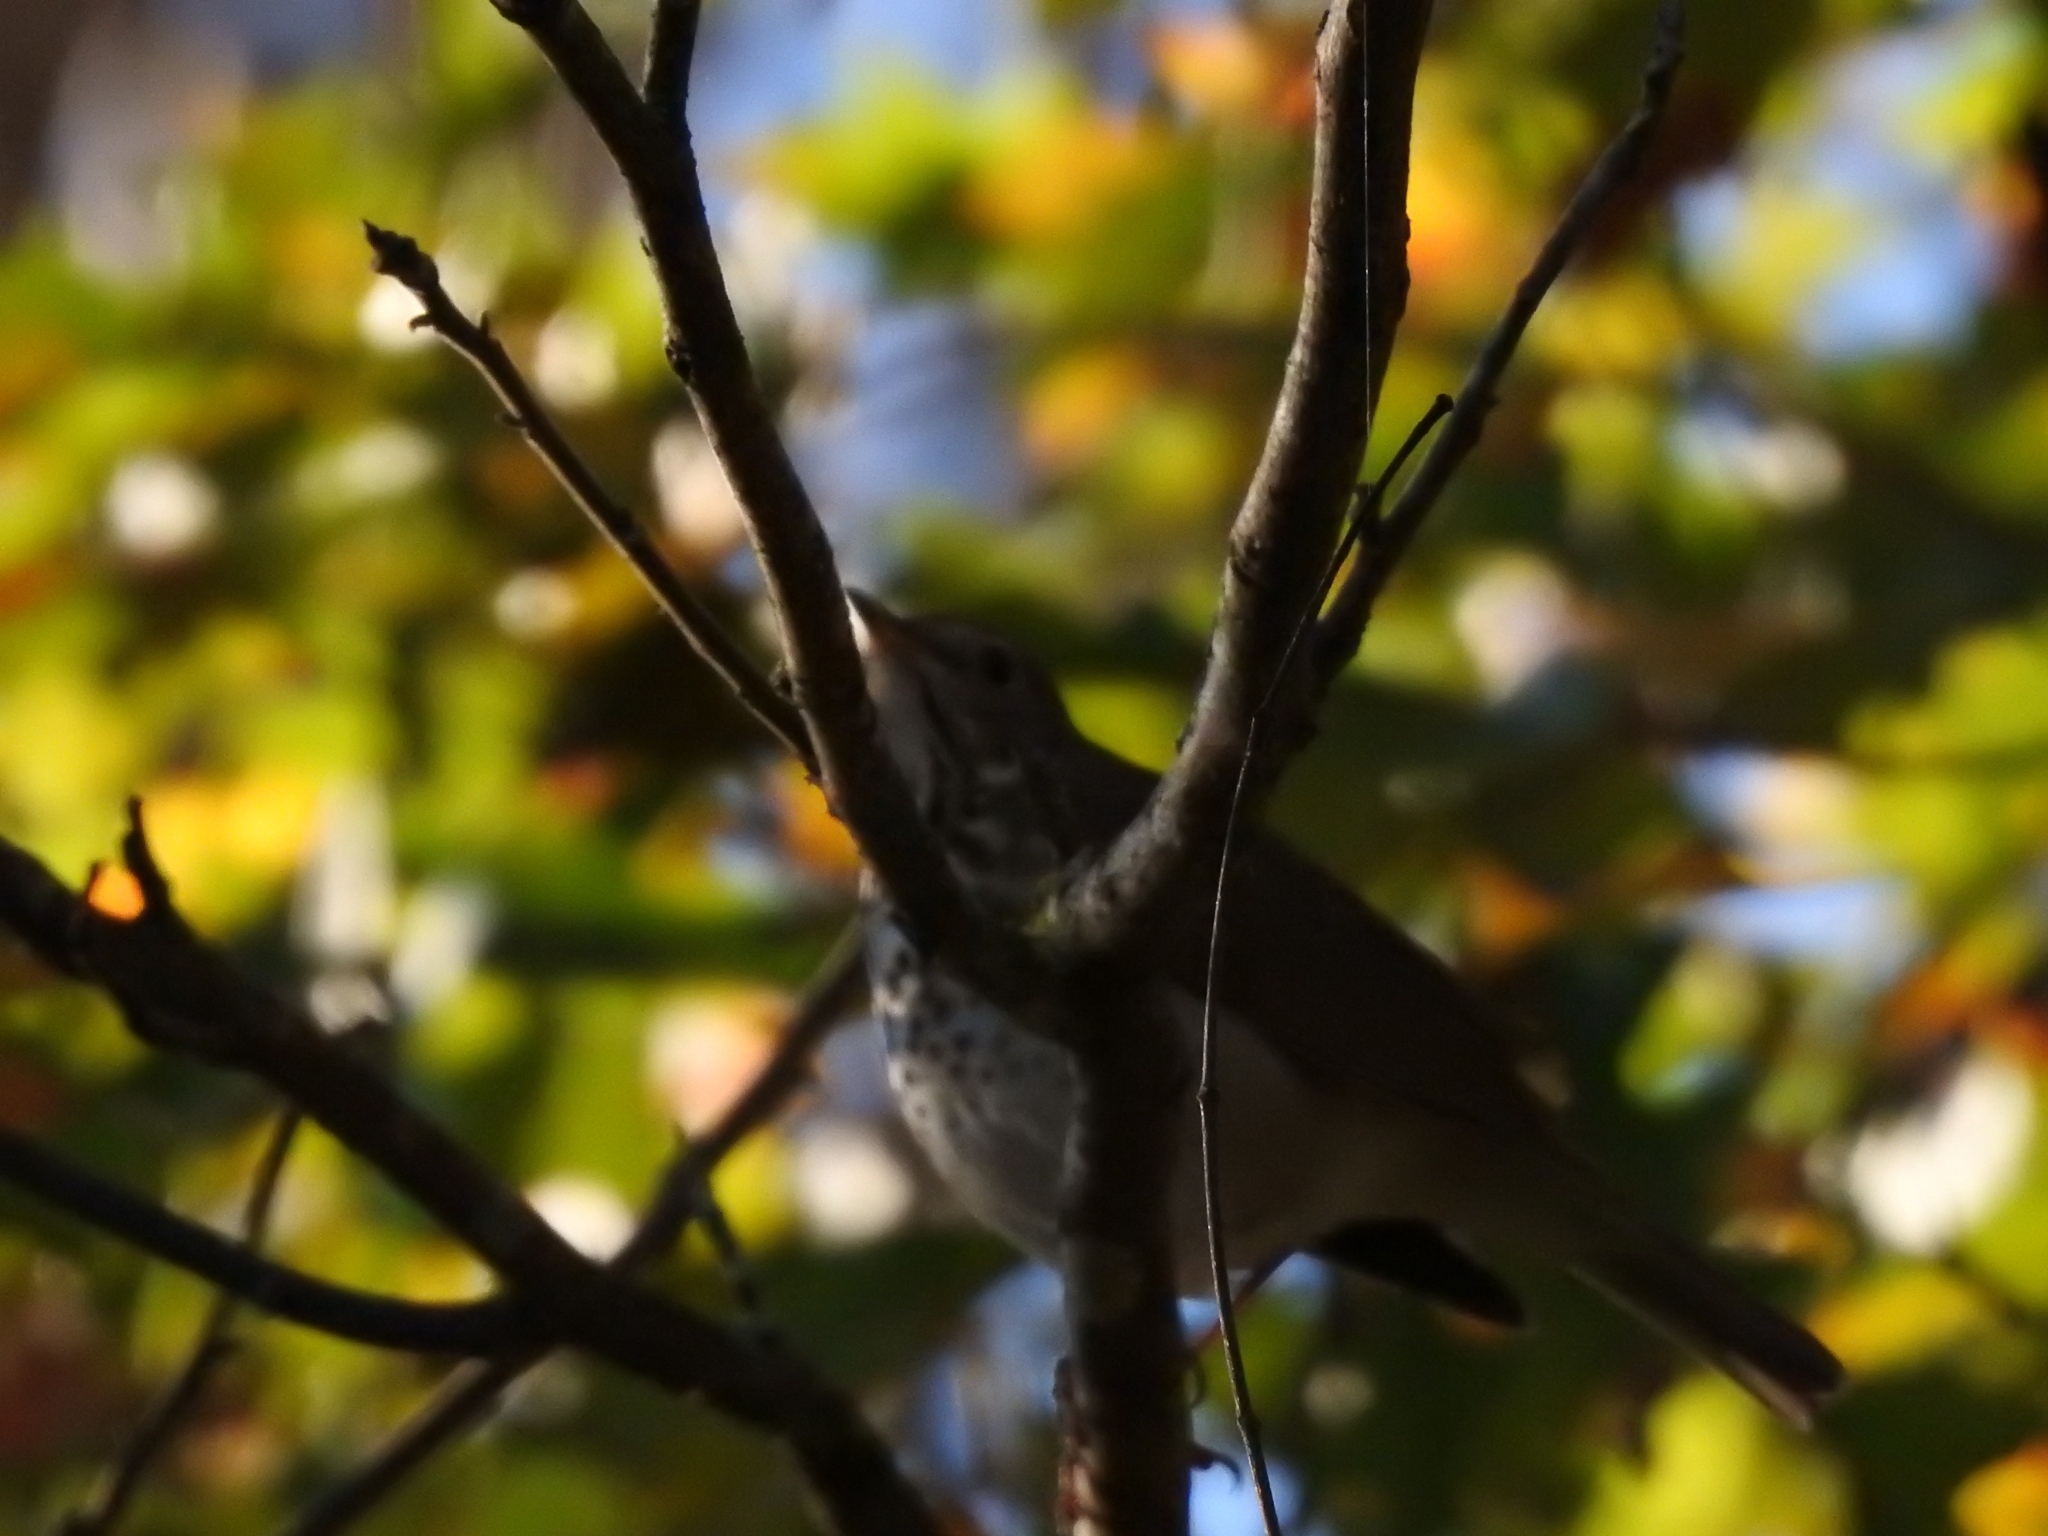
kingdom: Animalia
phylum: Chordata
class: Aves
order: Passeriformes
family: Turdidae
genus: Catharus
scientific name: Catharus guttatus
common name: Hermit thrush
